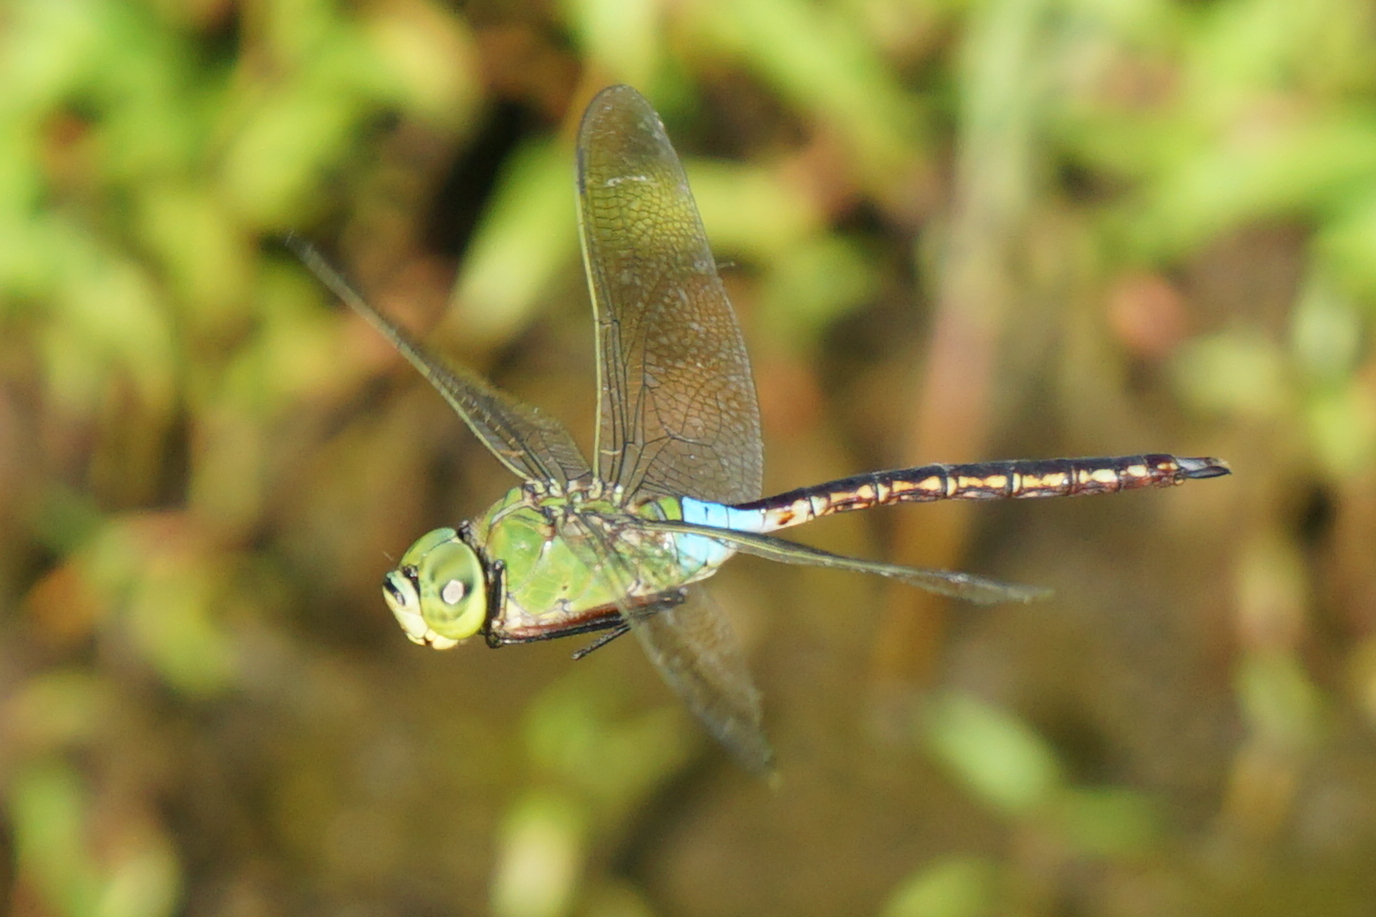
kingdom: Animalia
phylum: Arthropoda
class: Insecta
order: Odonata
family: Aeshnidae
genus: Anax
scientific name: Anax julius
